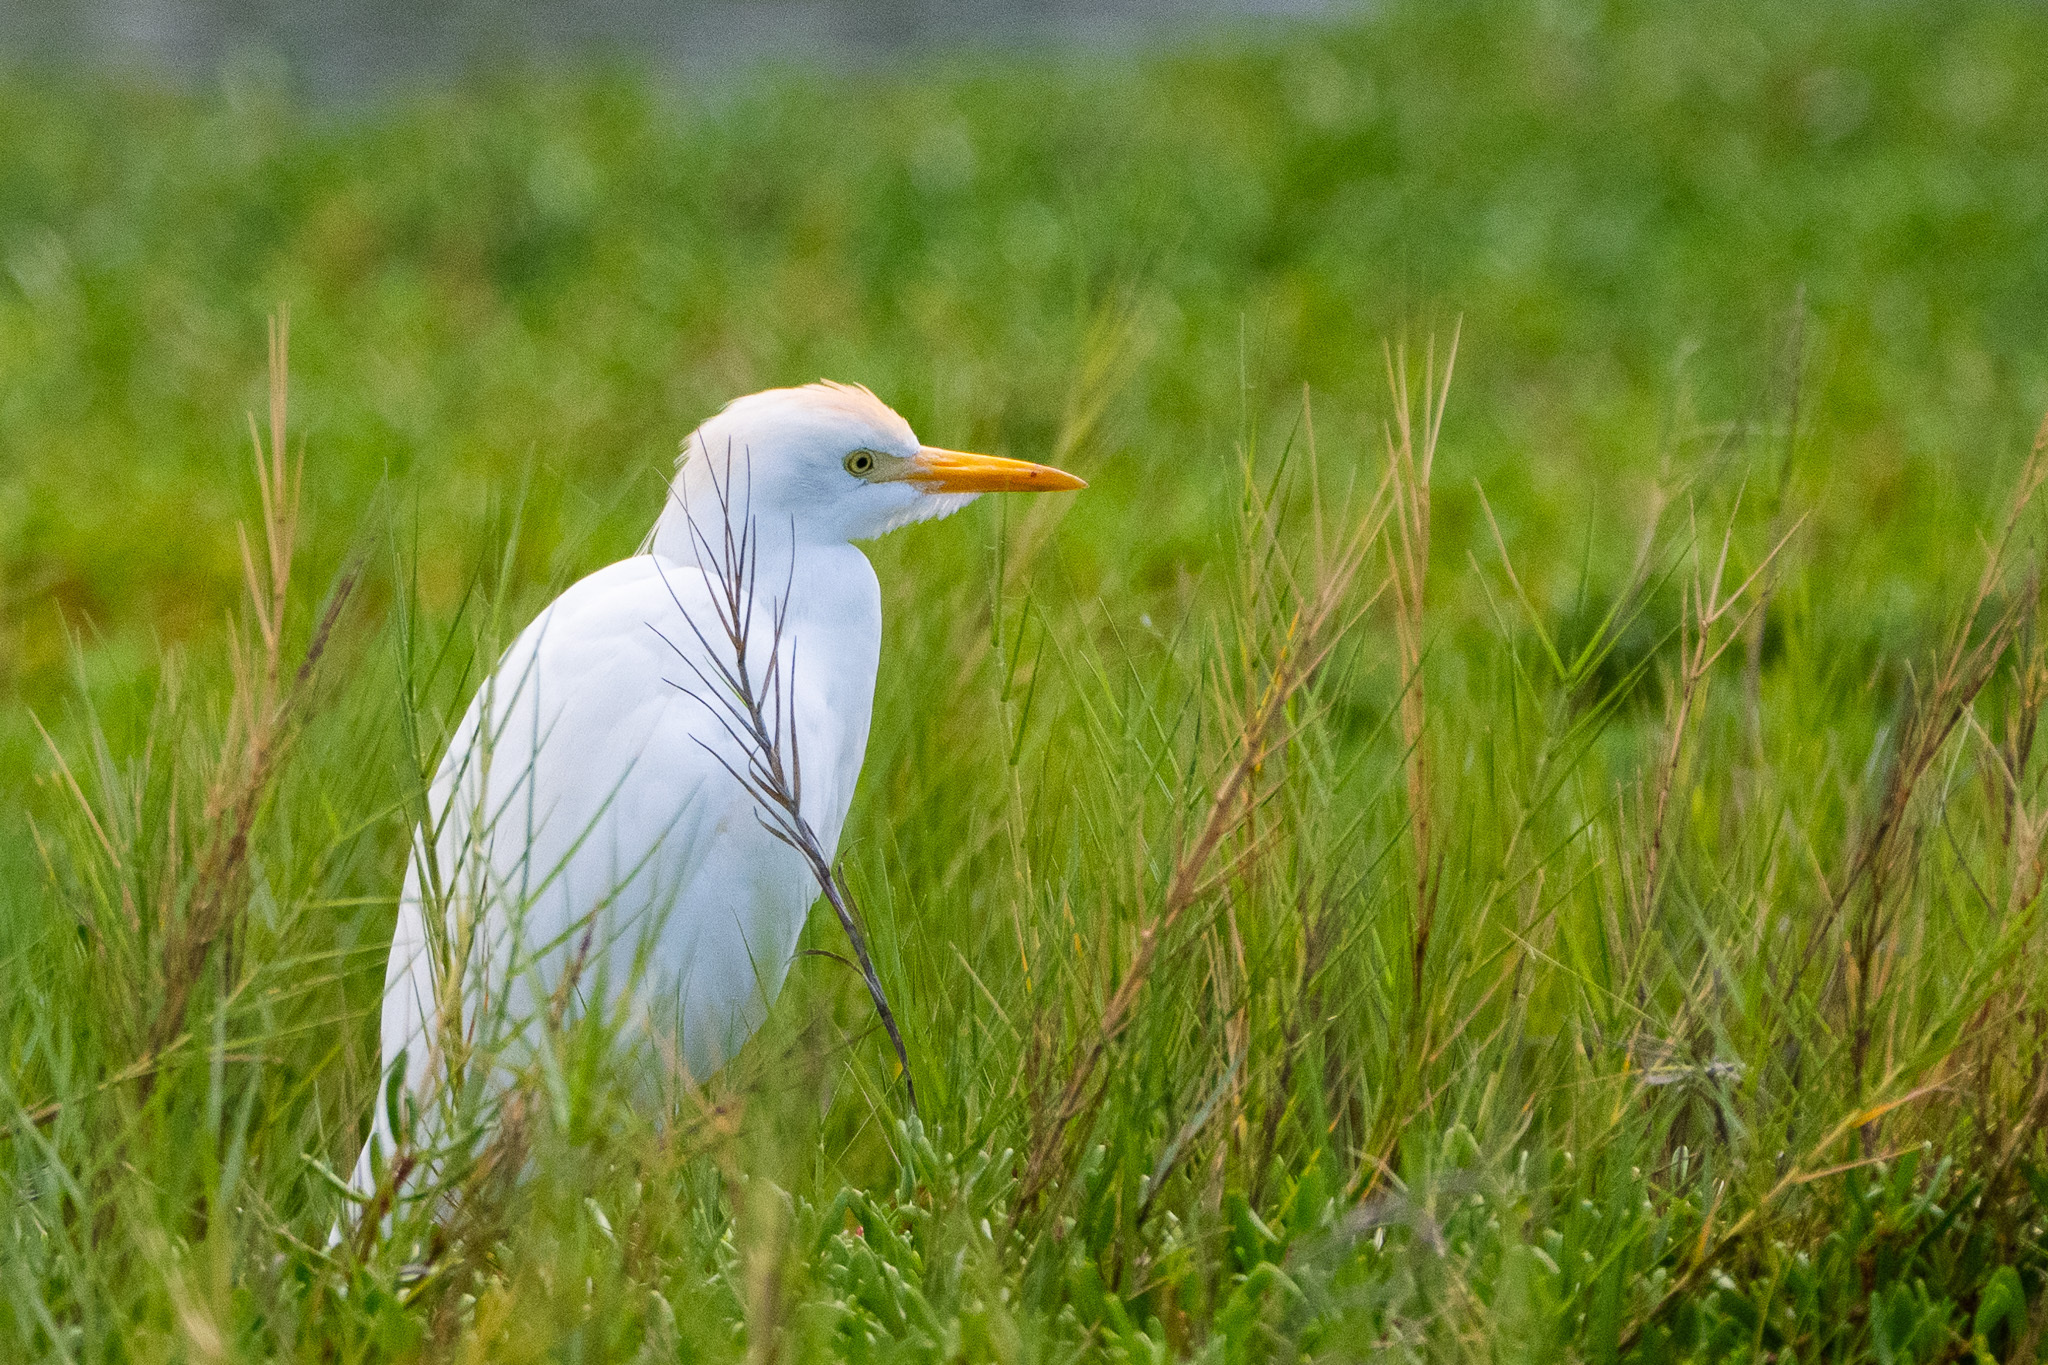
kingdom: Animalia
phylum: Chordata
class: Aves
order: Pelecaniformes
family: Ardeidae
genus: Bubulcus
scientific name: Bubulcus ibis
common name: Cattle egret
